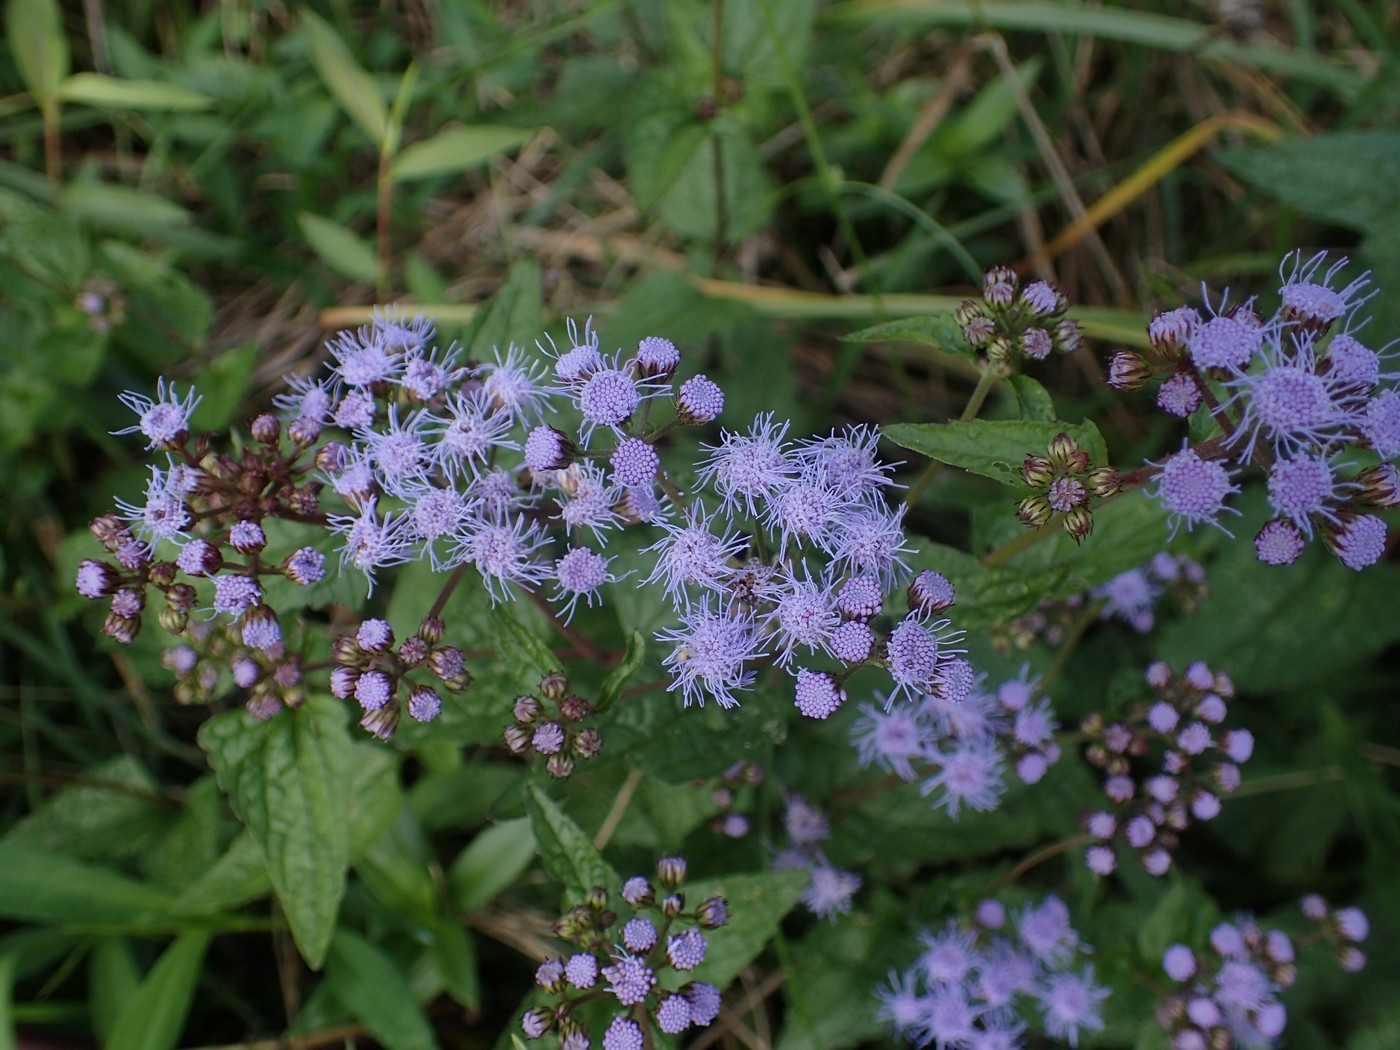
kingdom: Plantae
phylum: Tracheophyta
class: Magnoliopsida
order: Asterales
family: Asteraceae
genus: Conoclinium
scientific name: Conoclinium coelestinum
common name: Blue mistflower
